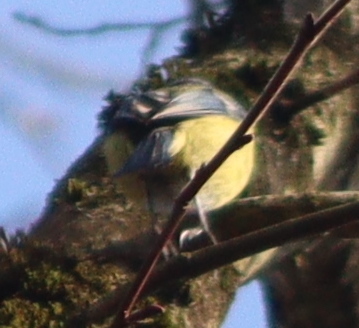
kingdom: Animalia
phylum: Chordata
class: Aves
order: Passeriformes
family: Paridae
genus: Cyanistes
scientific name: Cyanistes caeruleus
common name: Eurasian blue tit
